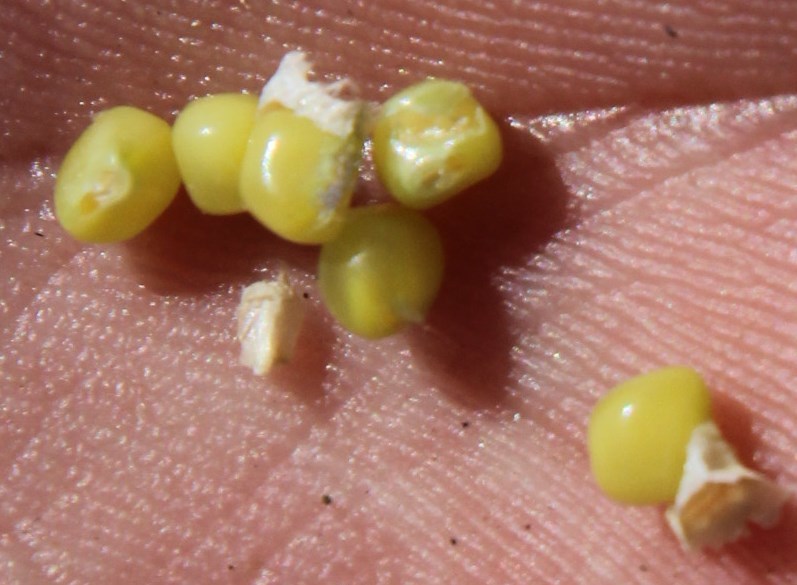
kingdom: Plantae
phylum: Tracheophyta
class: Magnoliopsida
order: Fabales
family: Fabaceae
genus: Indigofera
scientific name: Indigofera cytisoides
